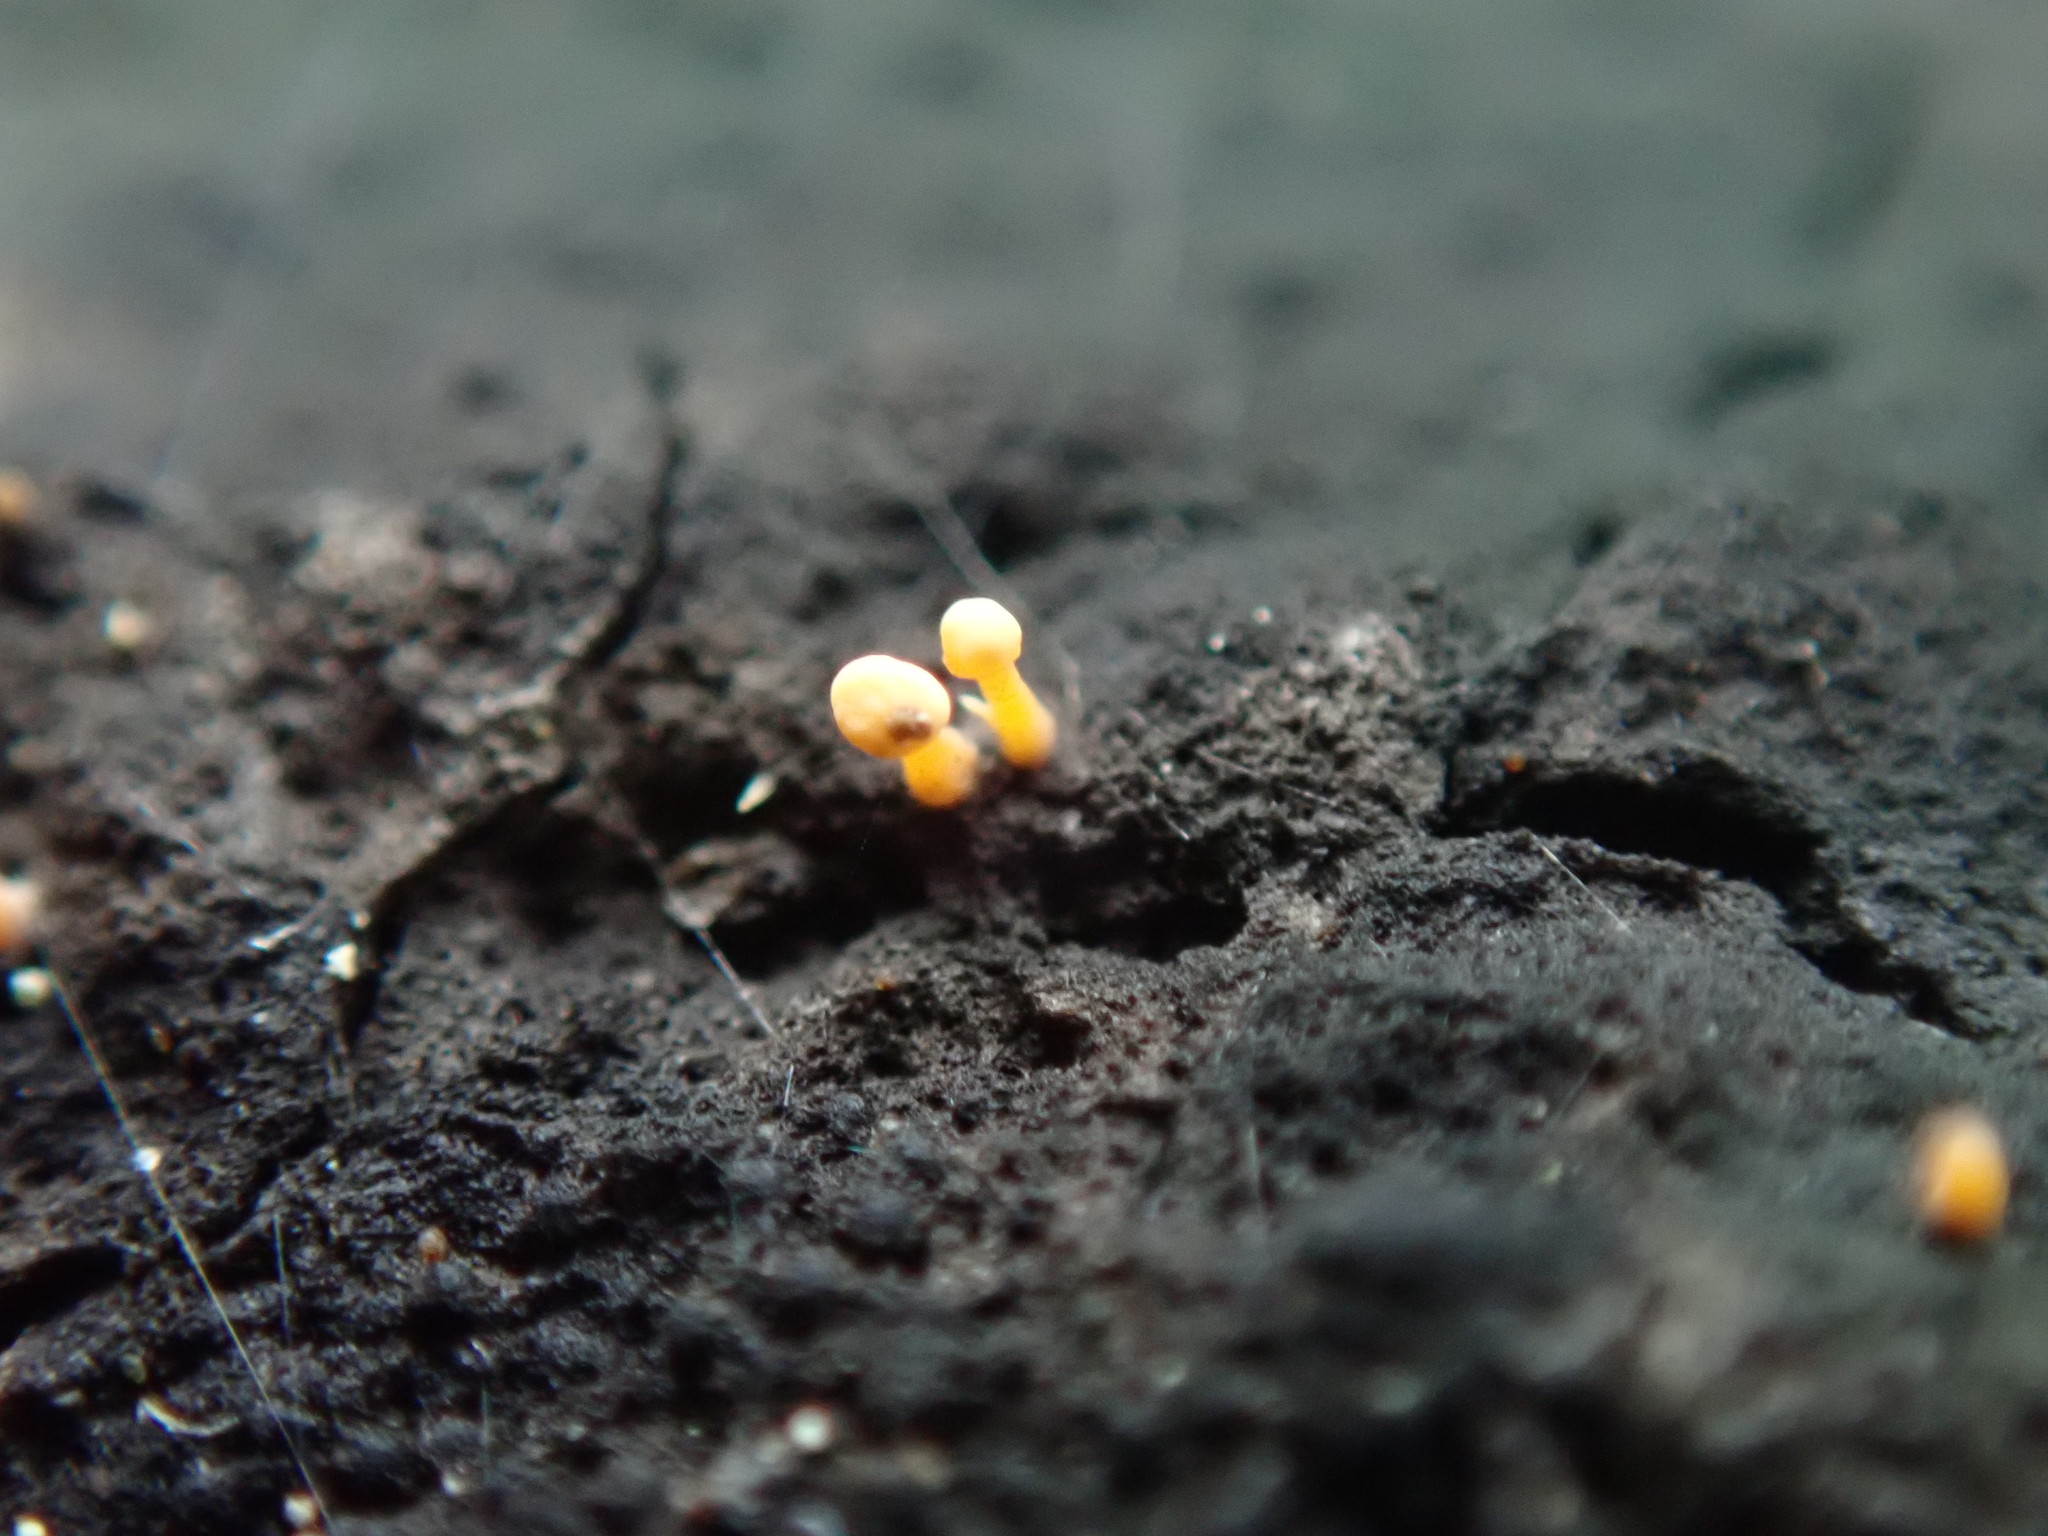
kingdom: Fungi
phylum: Ascomycota
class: Leotiomycetes
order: Helotiales
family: Helotiaceae
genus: Bisporella
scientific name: Bisporella resinicola
